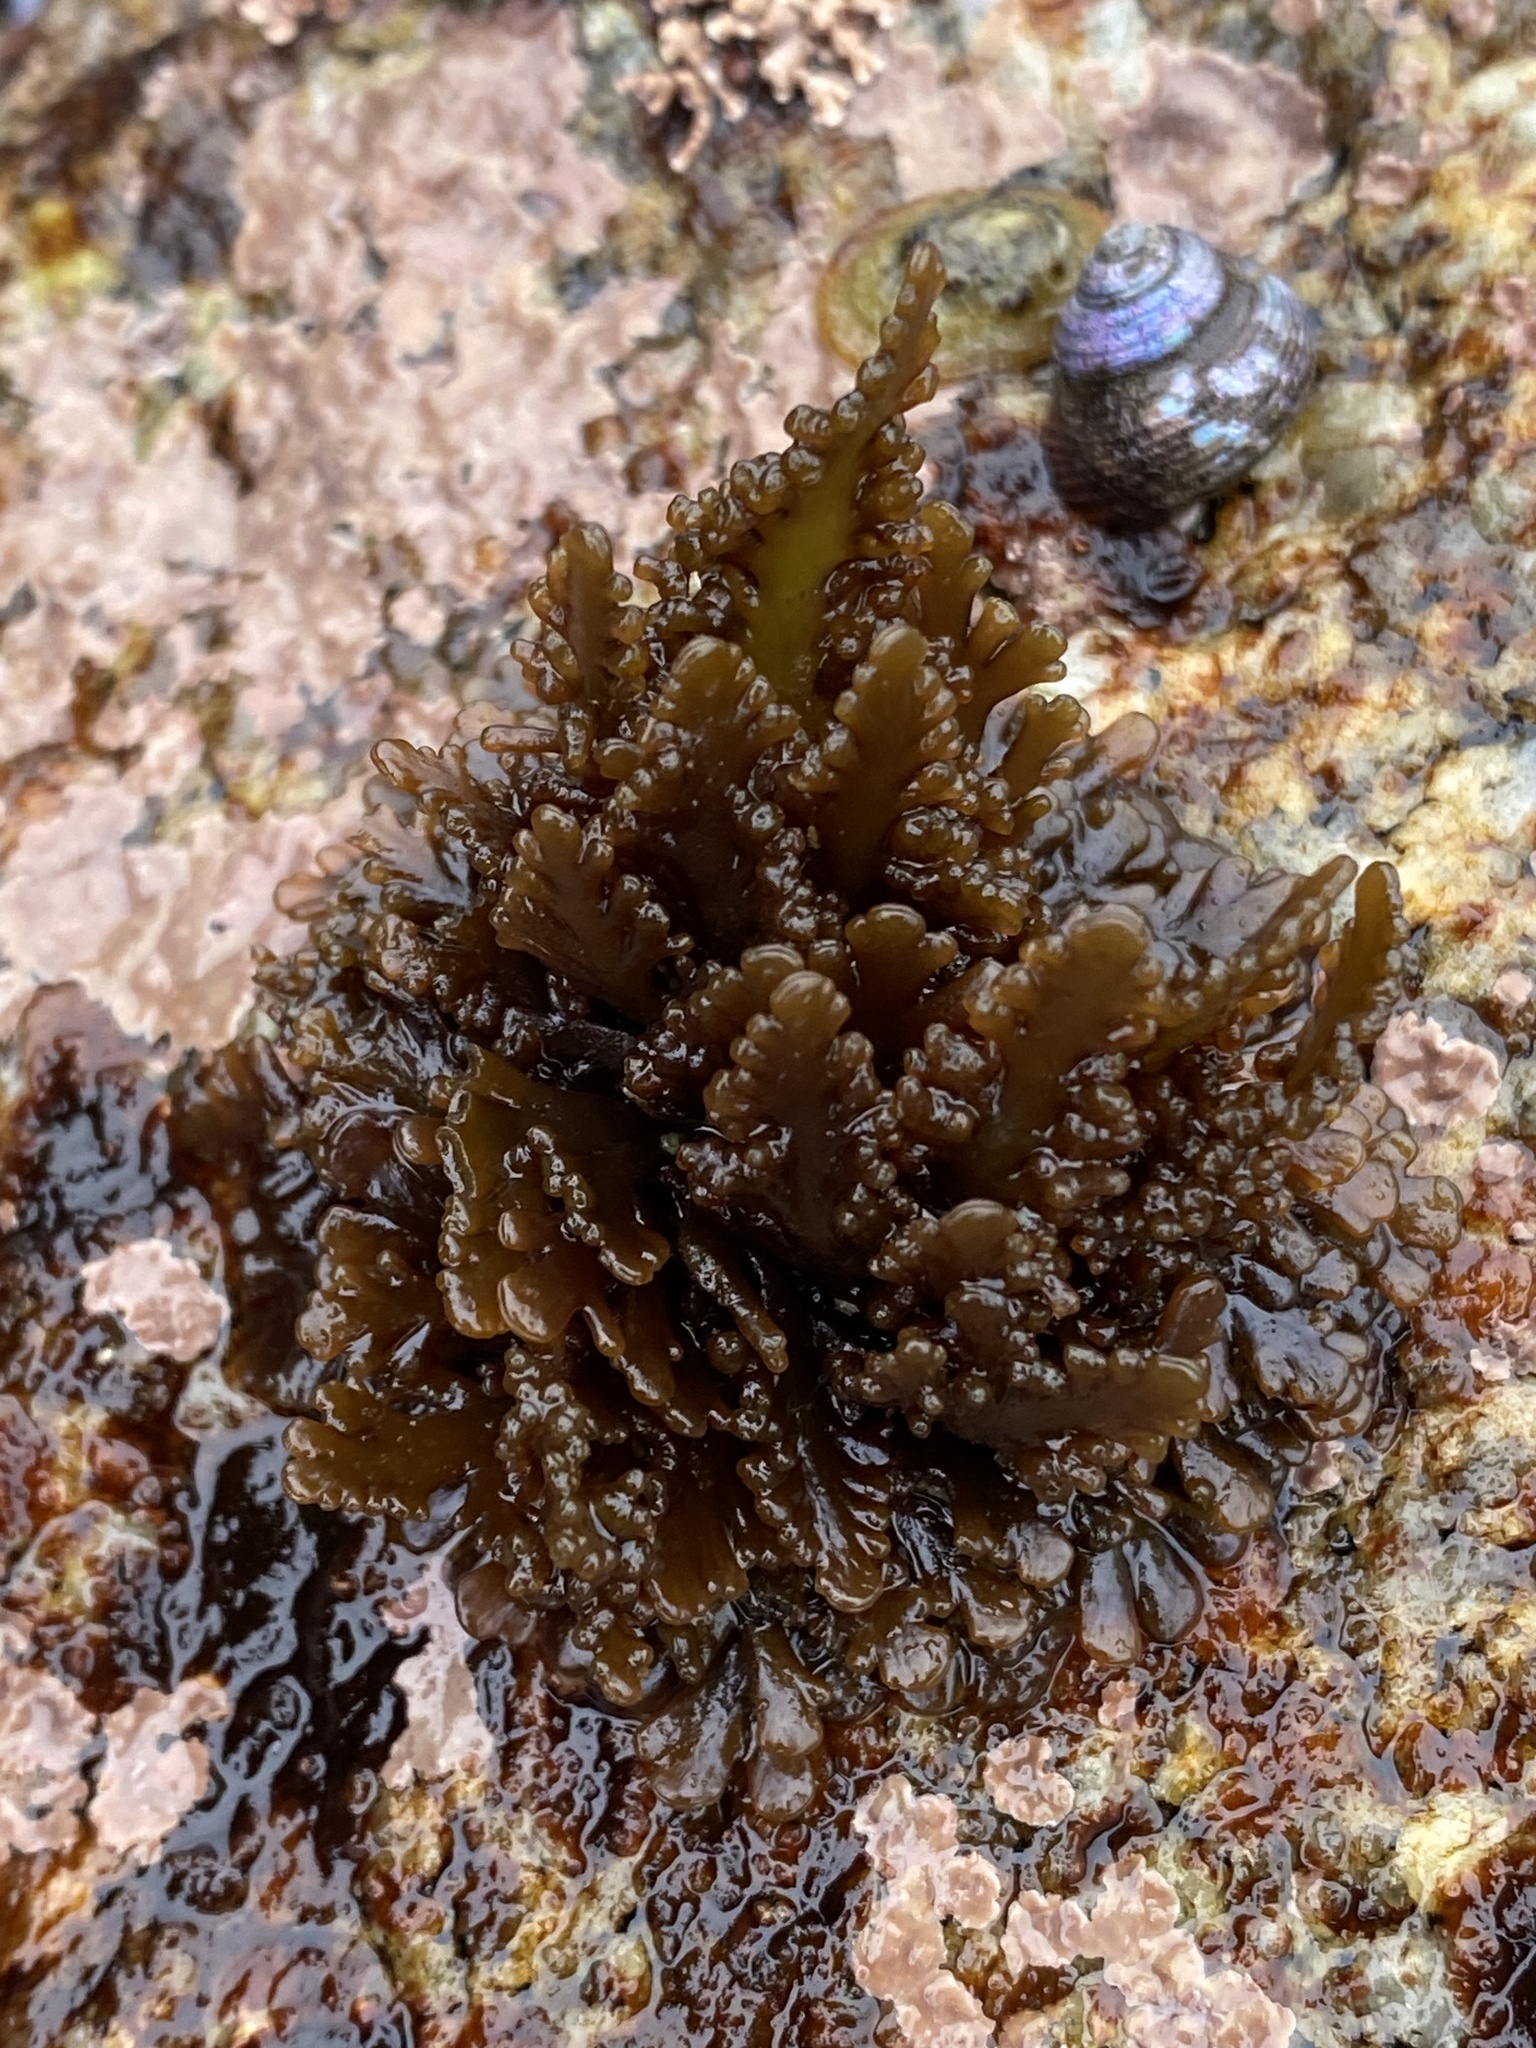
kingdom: Plantae
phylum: Rhodophyta
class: Florideophyceae
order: Ceramiales
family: Rhodomelaceae
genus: Osmundea
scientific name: Osmundea spectabilis
